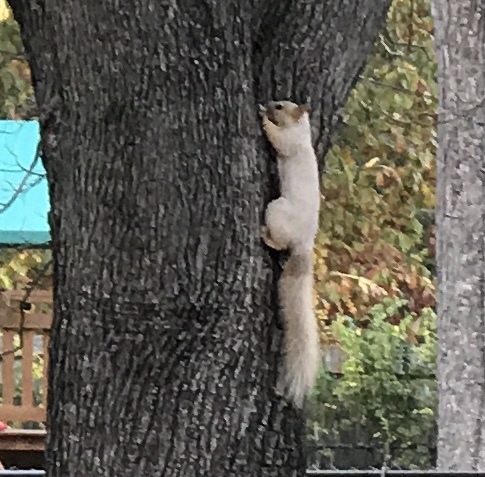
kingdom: Animalia
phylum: Chordata
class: Mammalia
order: Rodentia
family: Sciuridae
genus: Sciurus
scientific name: Sciurus niger
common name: Fox squirrel
